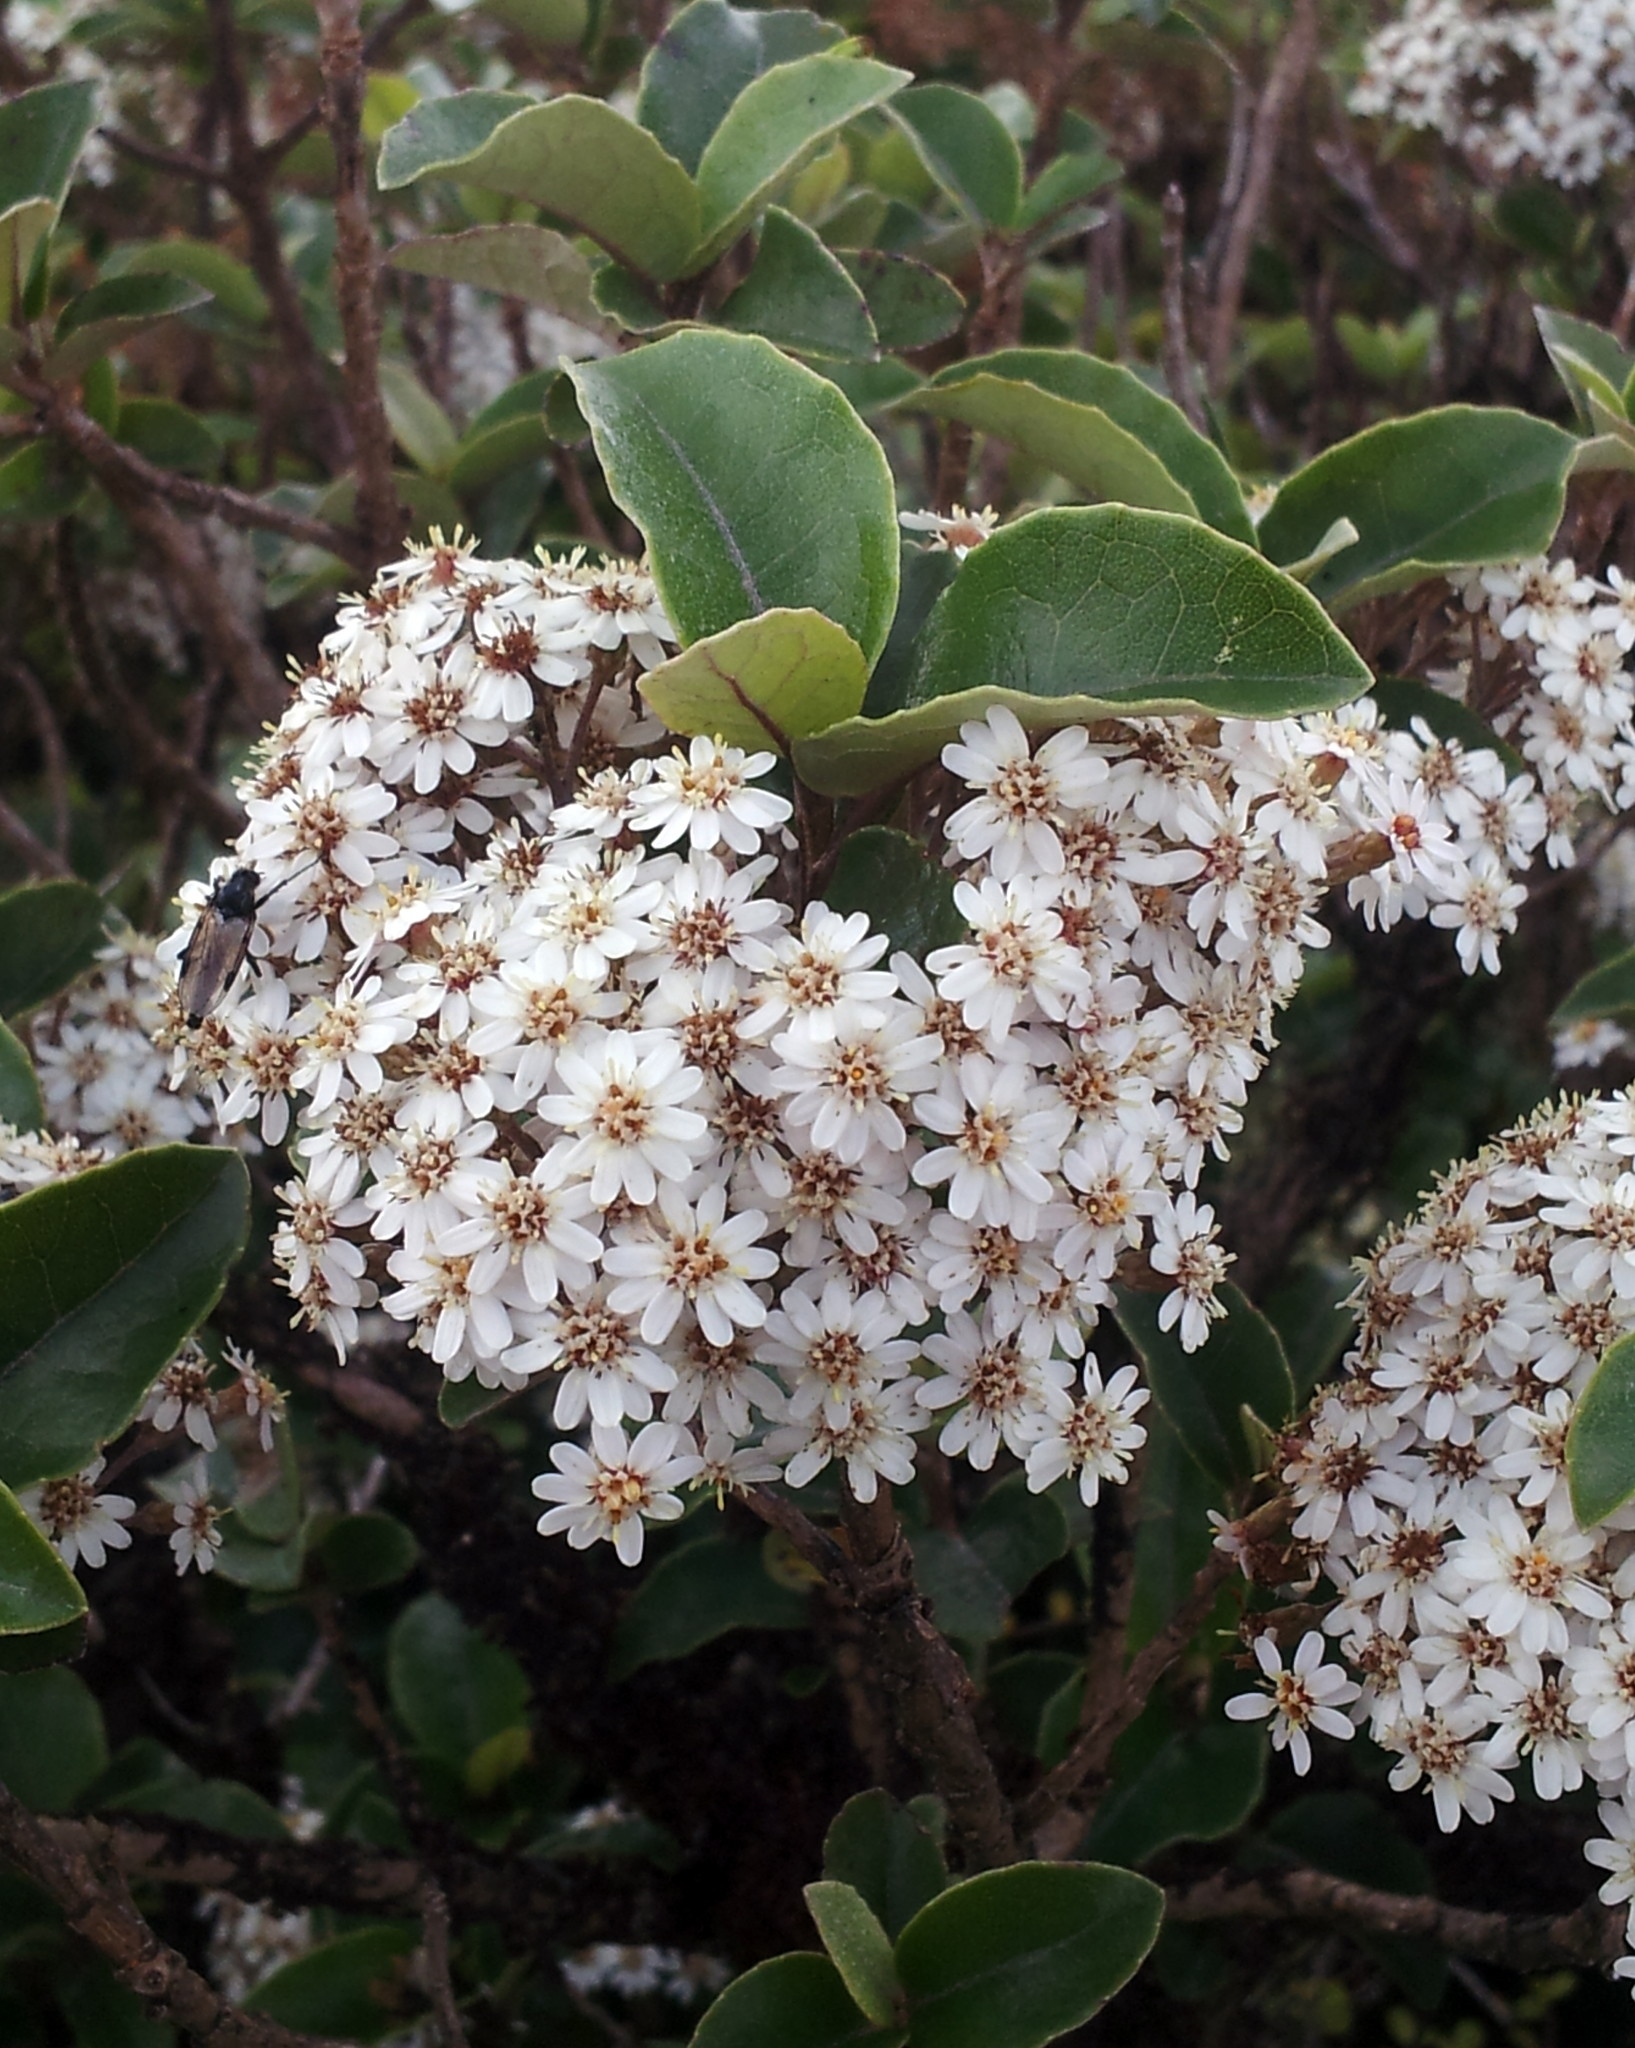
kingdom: Plantae
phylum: Tracheophyta
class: Magnoliopsida
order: Asterales
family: Asteraceae
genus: Olearia
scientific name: Olearia arborescens
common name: Glossy tree daisy
